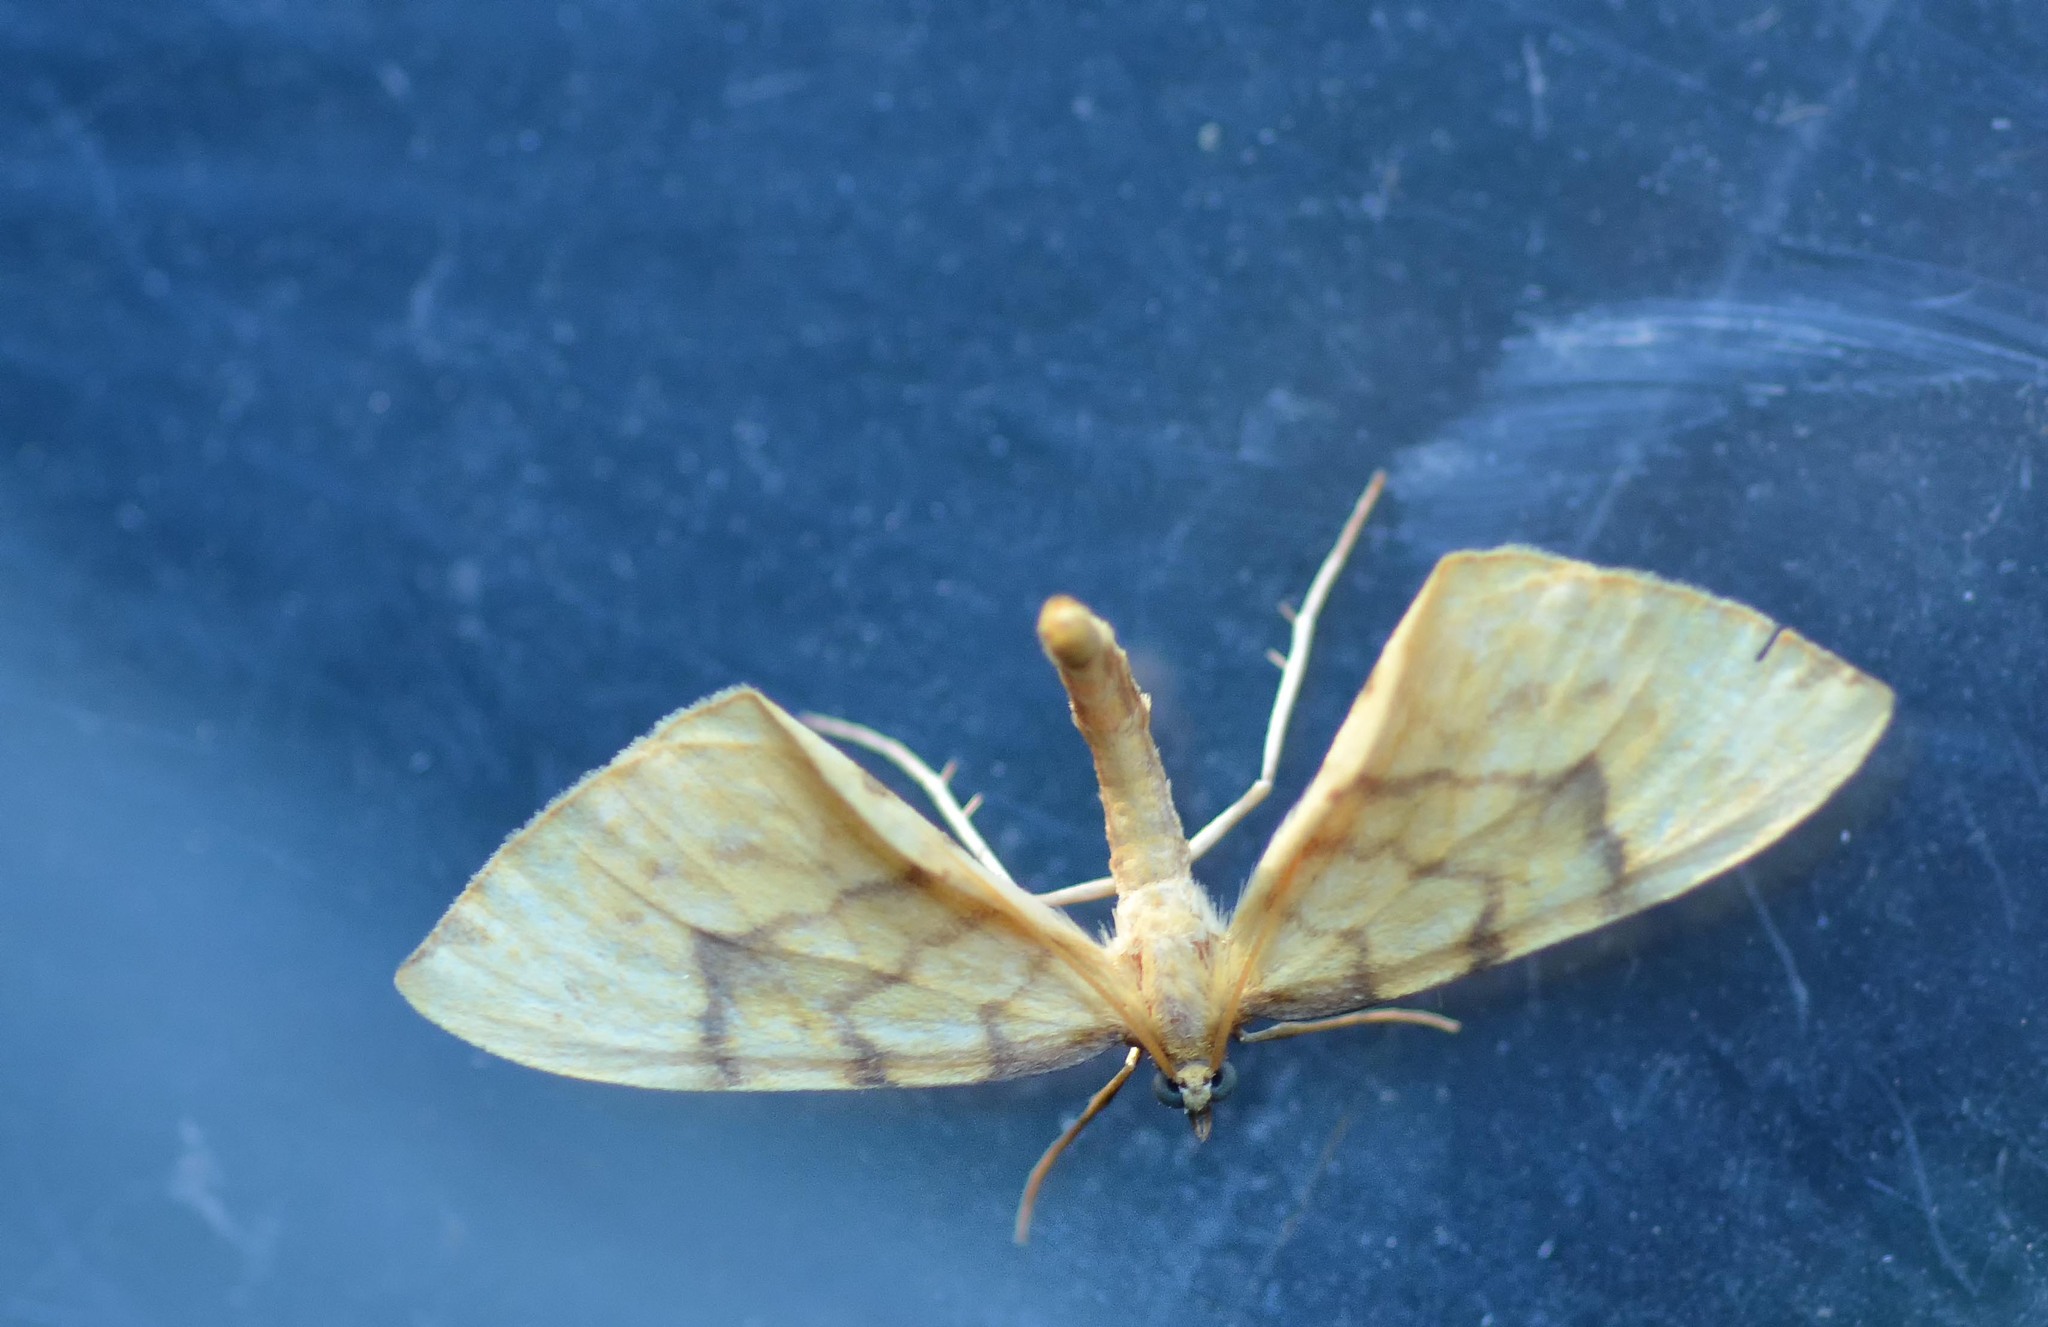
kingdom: Animalia
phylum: Arthropoda
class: Insecta
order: Lepidoptera
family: Geometridae
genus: Eulithis
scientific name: Eulithis pyraliata
